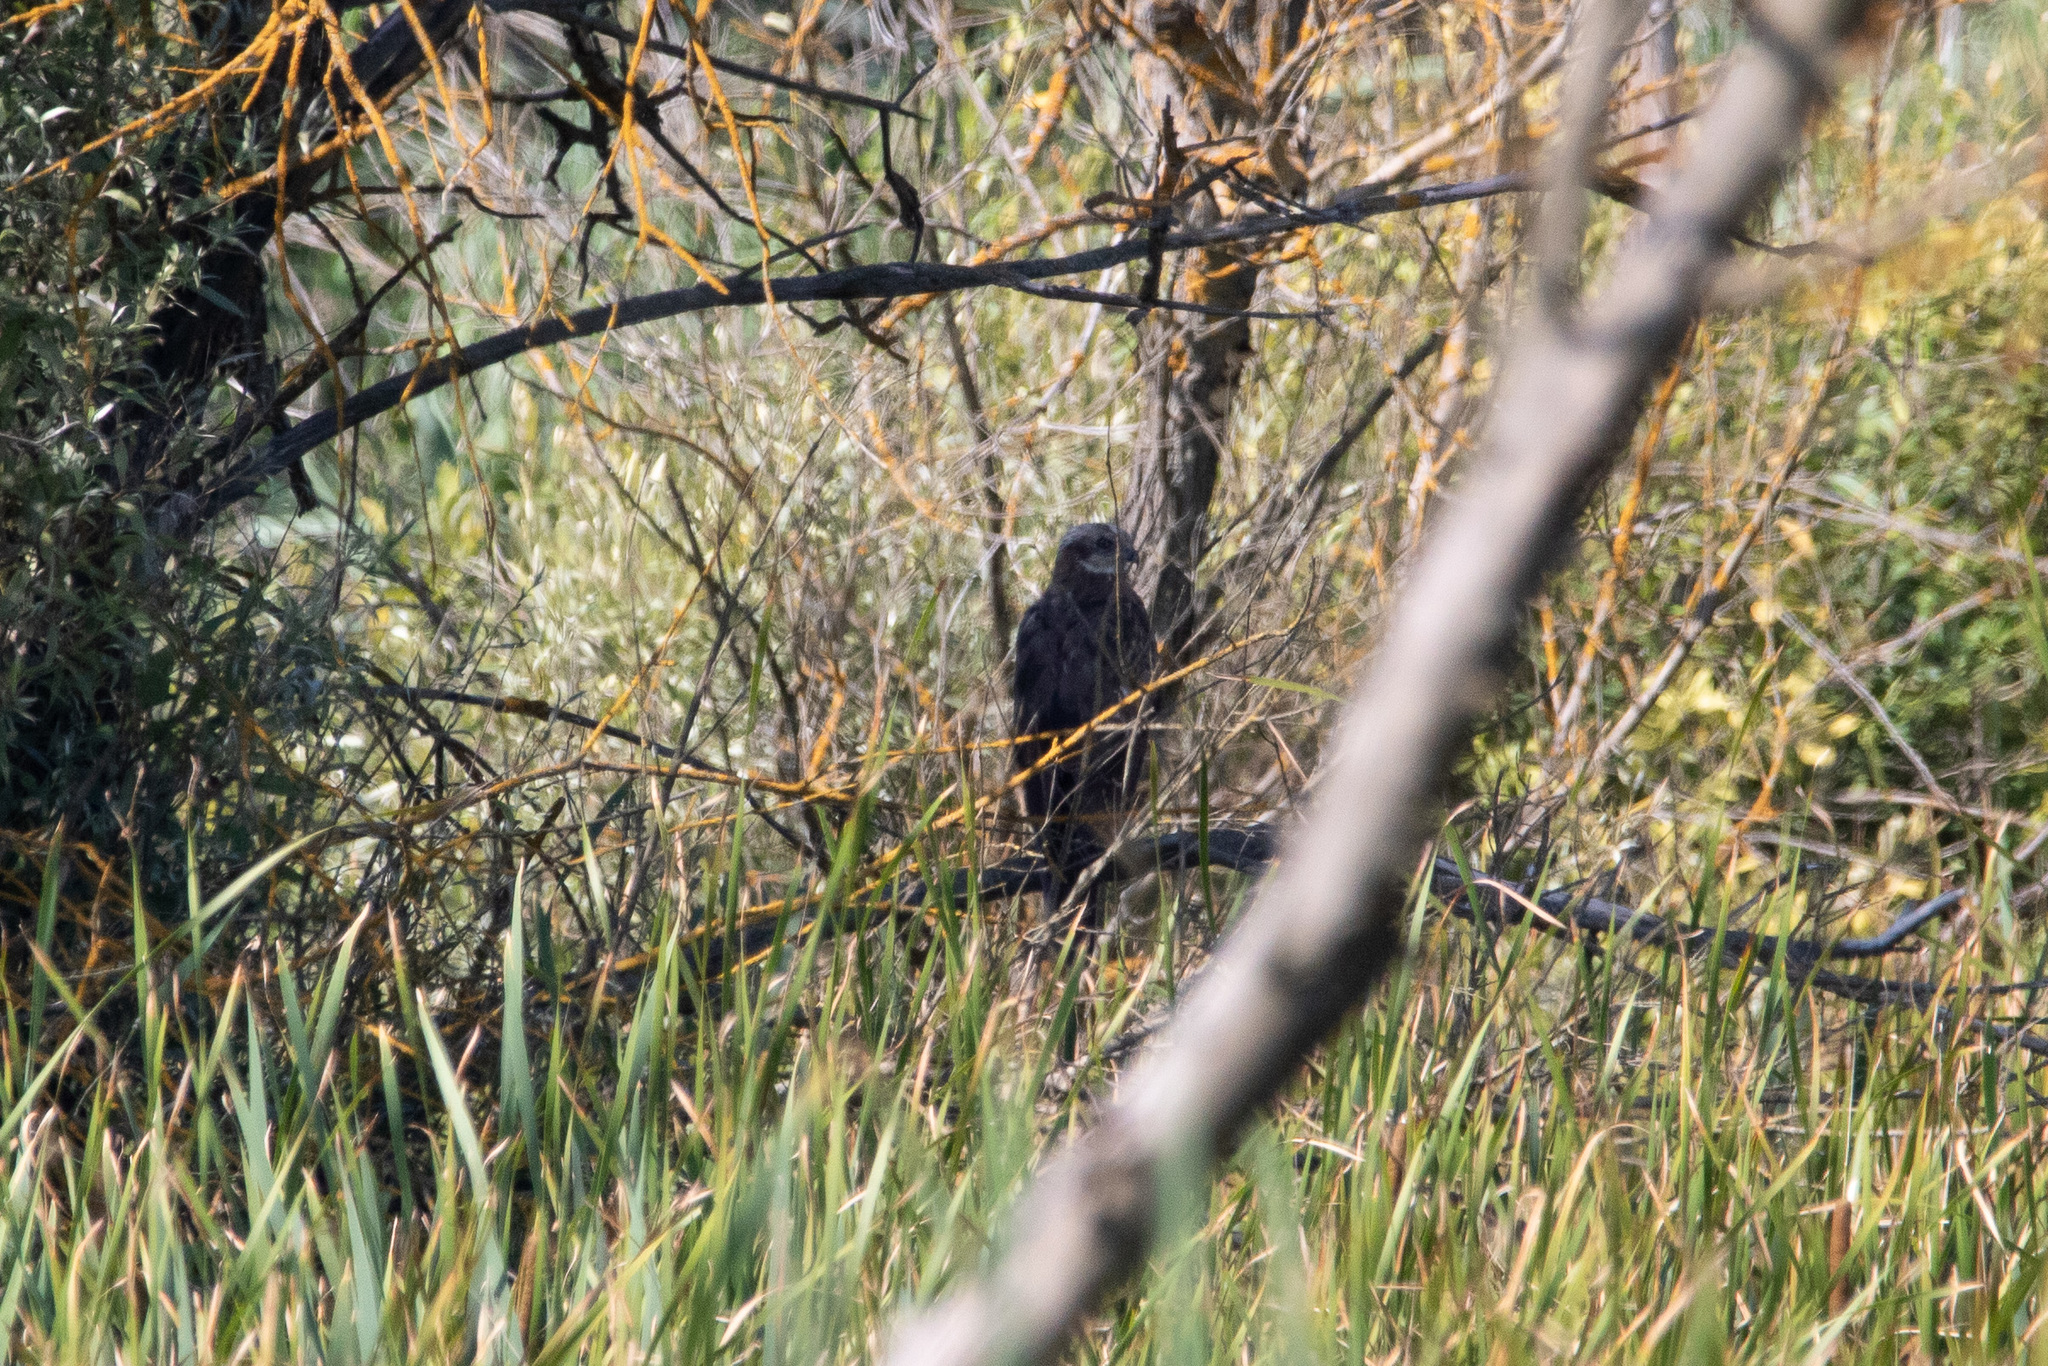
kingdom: Animalia
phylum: Chordata
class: Aves
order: Accipitriformes
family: Accipitridae
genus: Circus
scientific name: Circus aeruginosus
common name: Western marsh harrier
